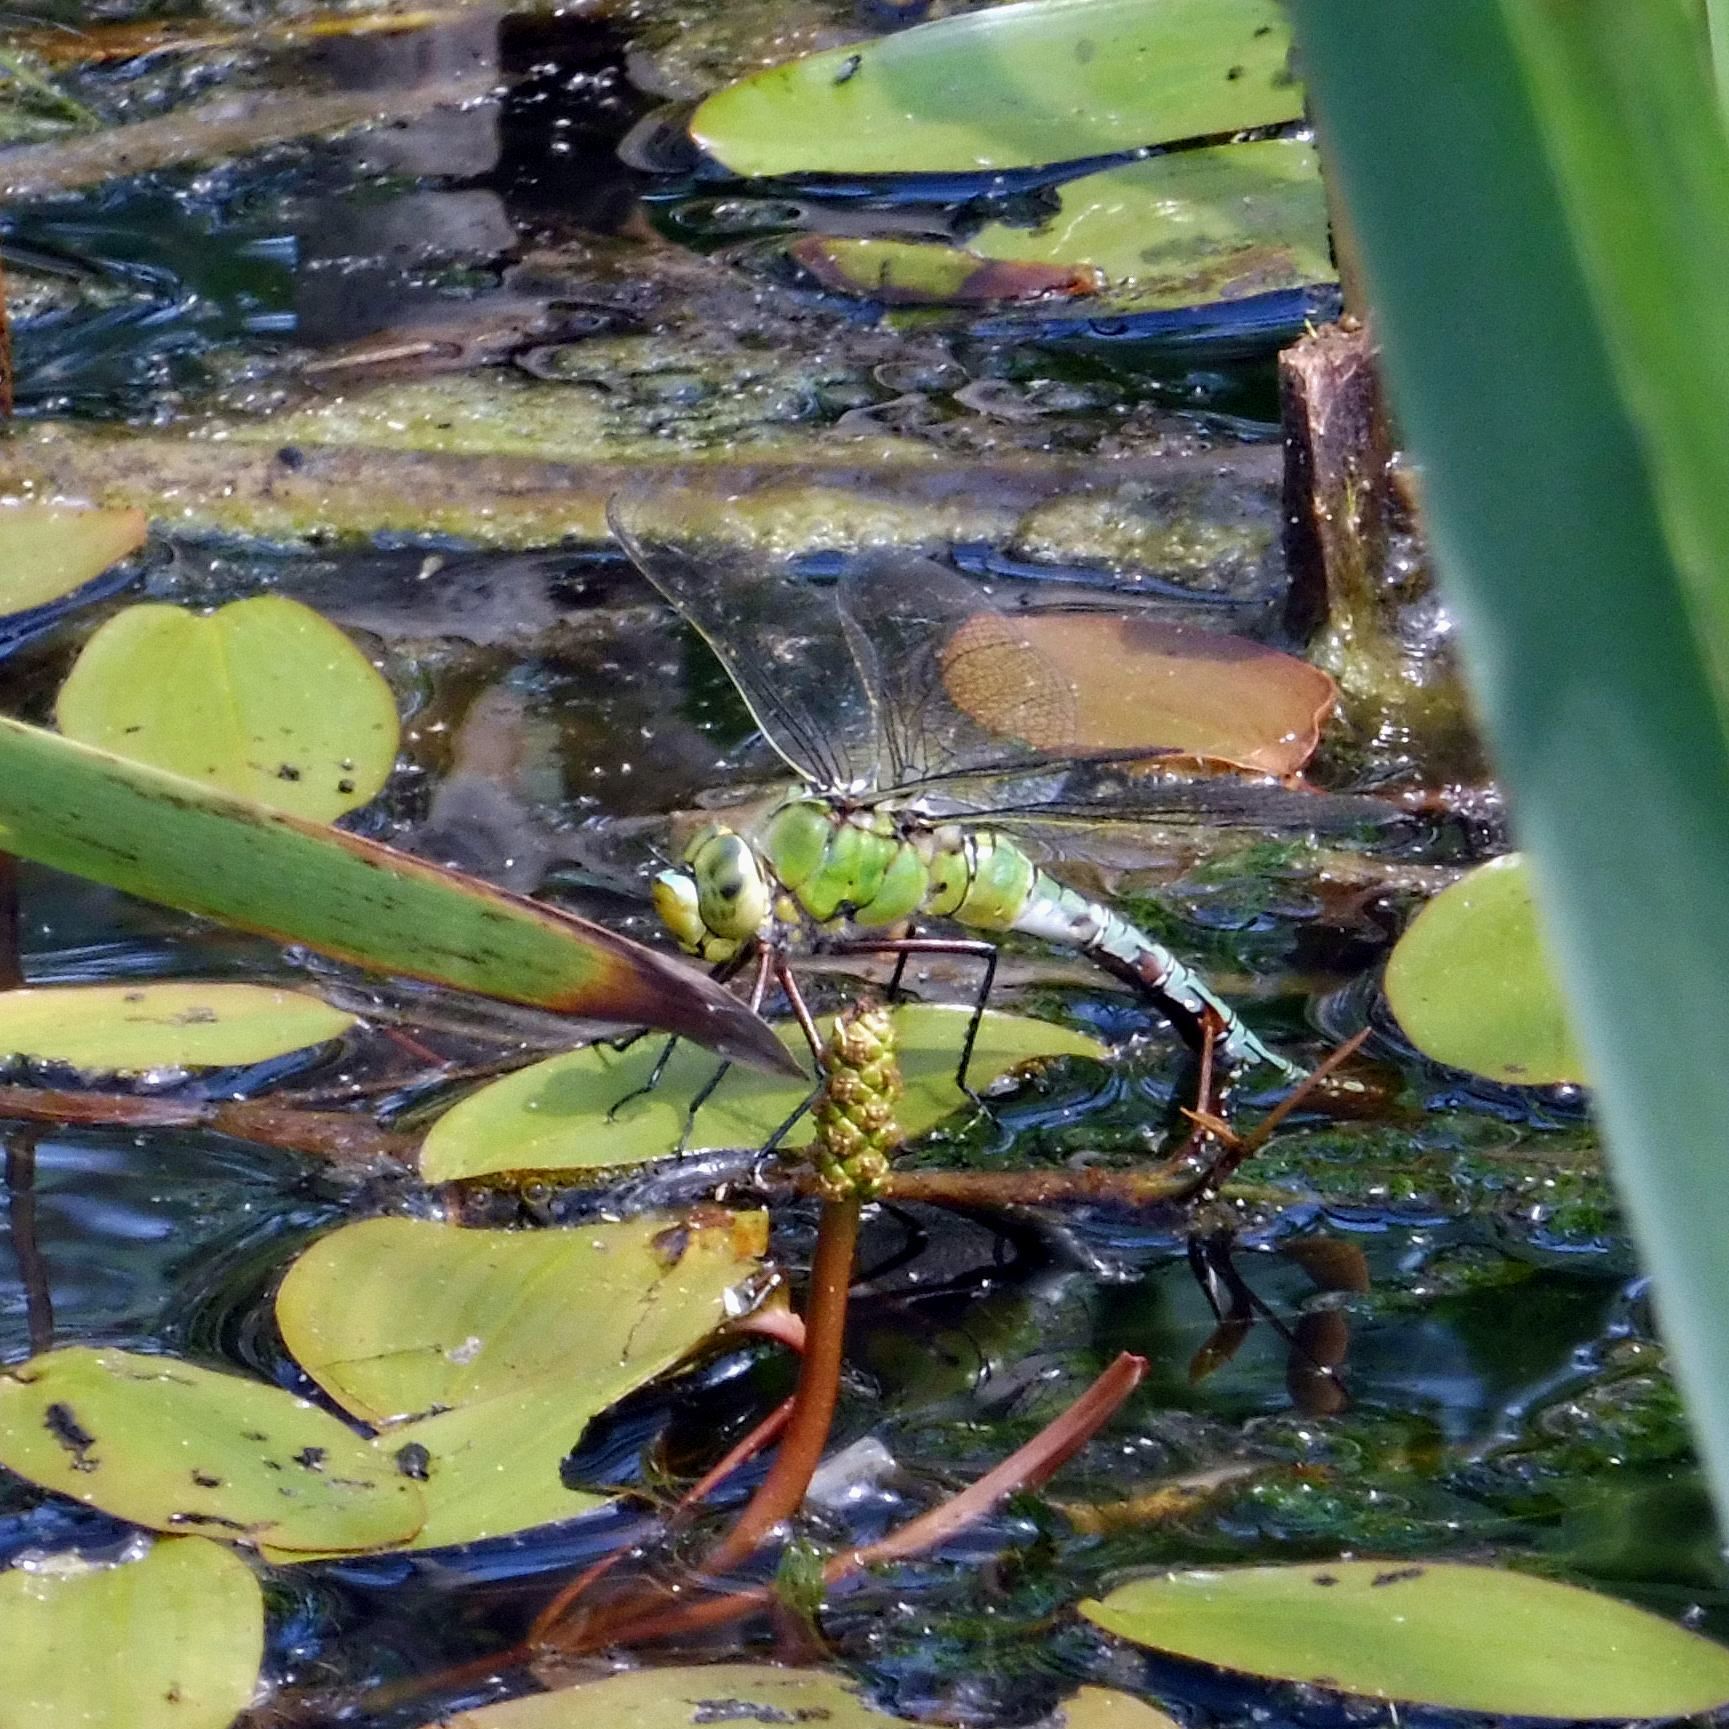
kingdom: Animalia
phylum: Arthropoda
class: Insecta
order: Odonata
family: Aeshnidae
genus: Anax
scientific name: Anax imperator
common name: Emperor dragonfly
